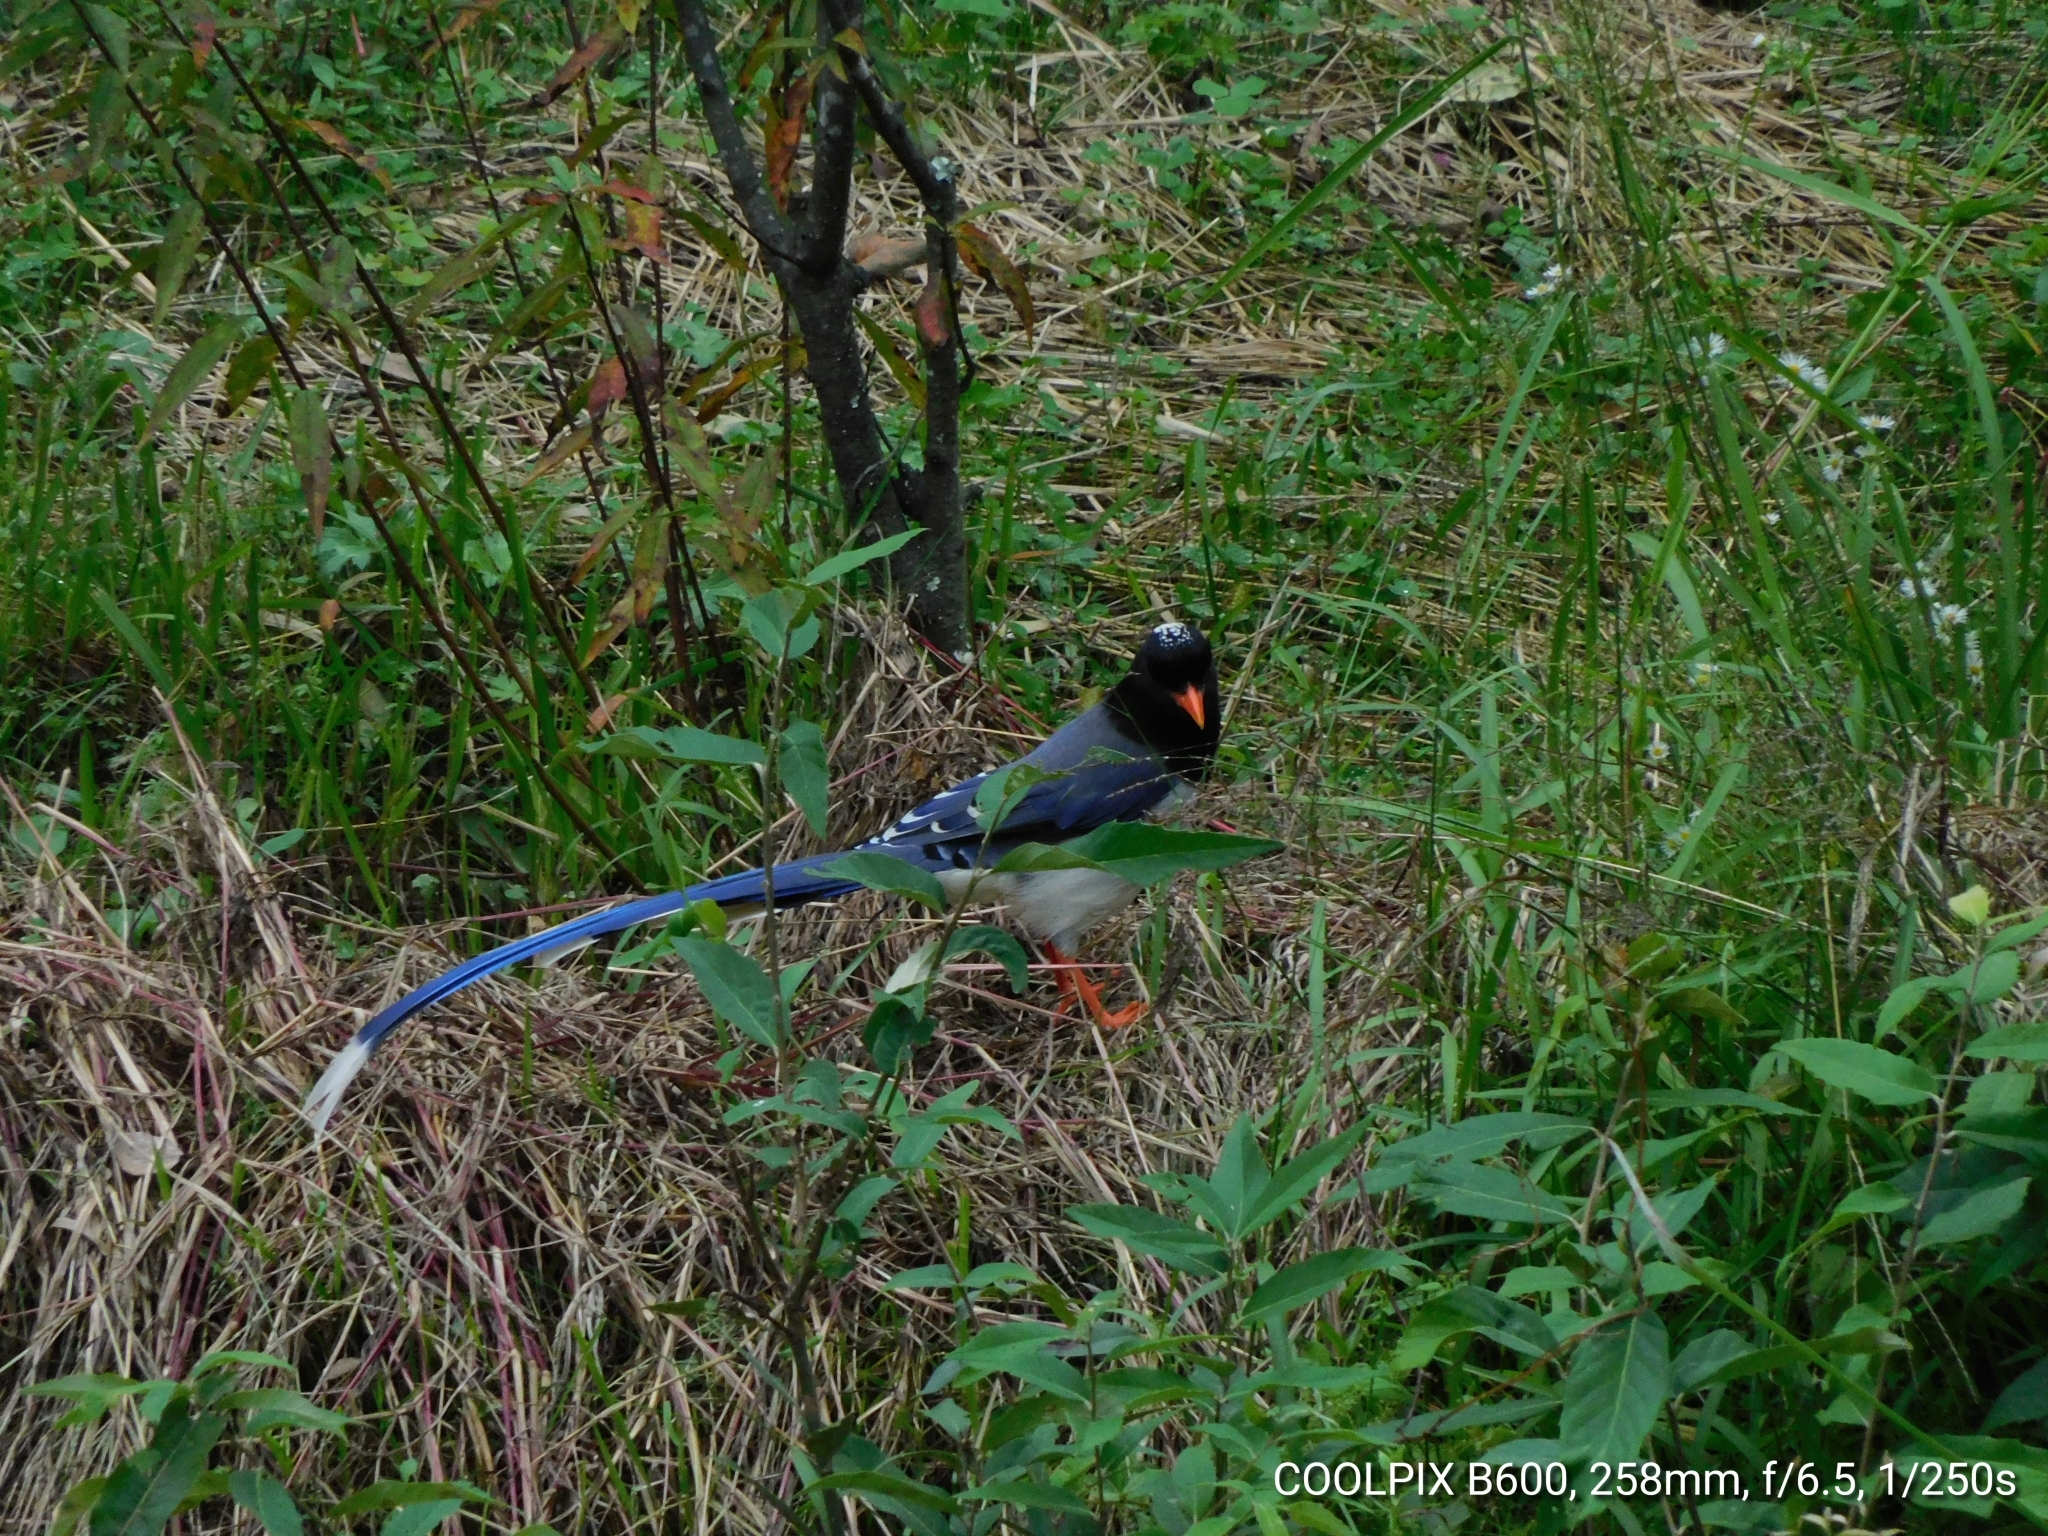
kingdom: Animalia
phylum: Chordata
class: Aves
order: Passeriformes
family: Corvidae
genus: Urocissa
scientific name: Urocissa erythroryncha
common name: Red-billed blue magpie
